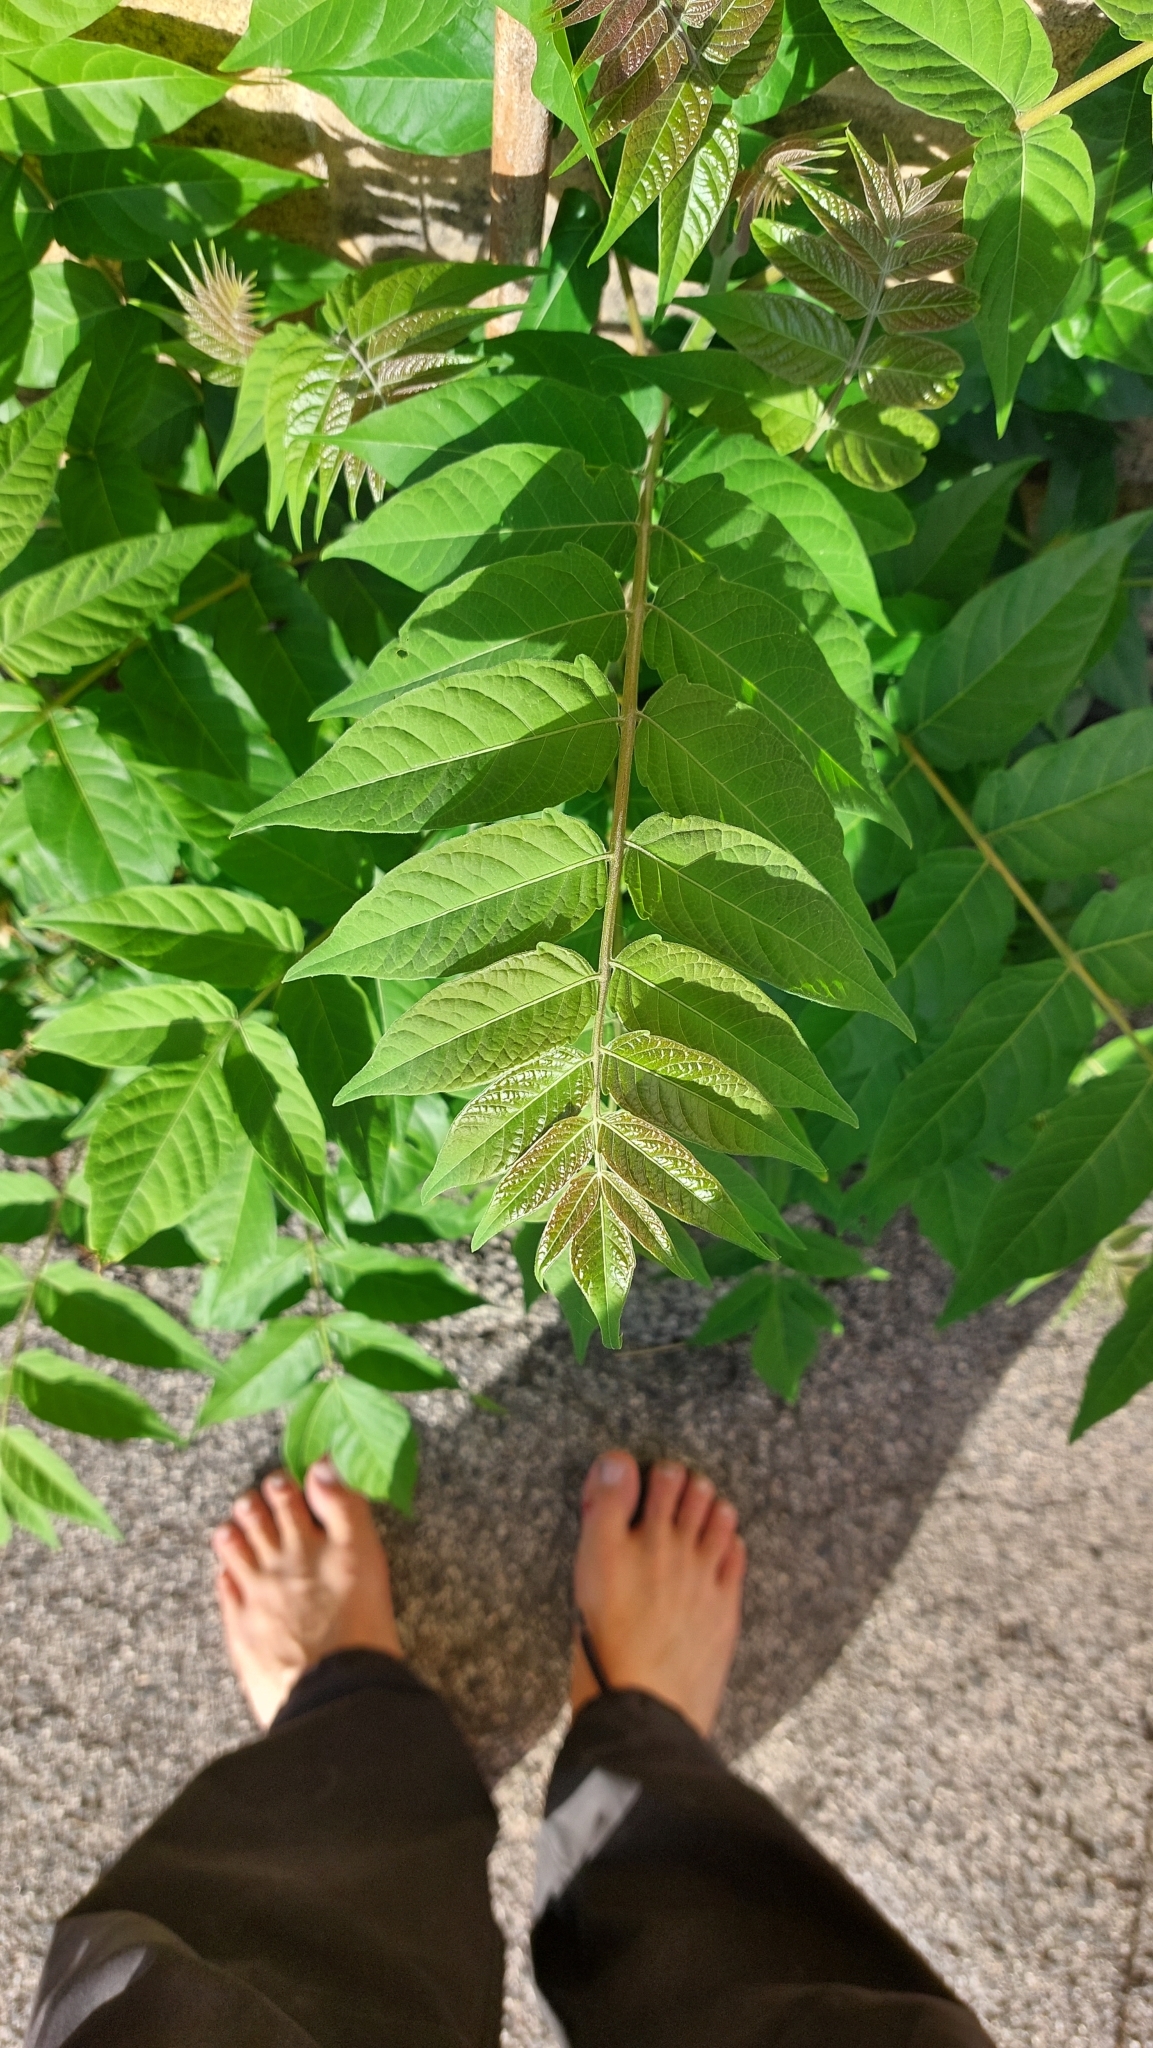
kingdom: Plantae
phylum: Tracheophyta
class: Magnoliopsida
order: Sapindales
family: Simaroubaceae
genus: Ailanthus
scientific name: Ailanthus altissima
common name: Tree-of-heaven
